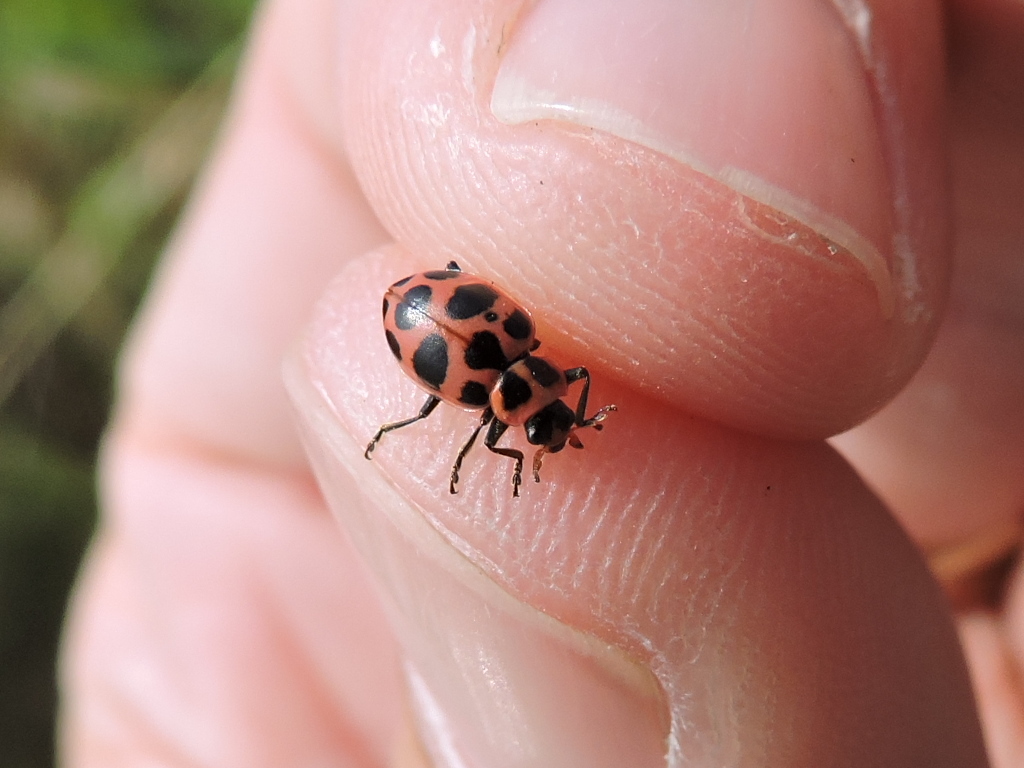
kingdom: Animalia
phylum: Arthropoda
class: Insecta
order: Coleoptera
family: Coccinellidae
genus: Coleomegilla
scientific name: Coleomegilla maculata
